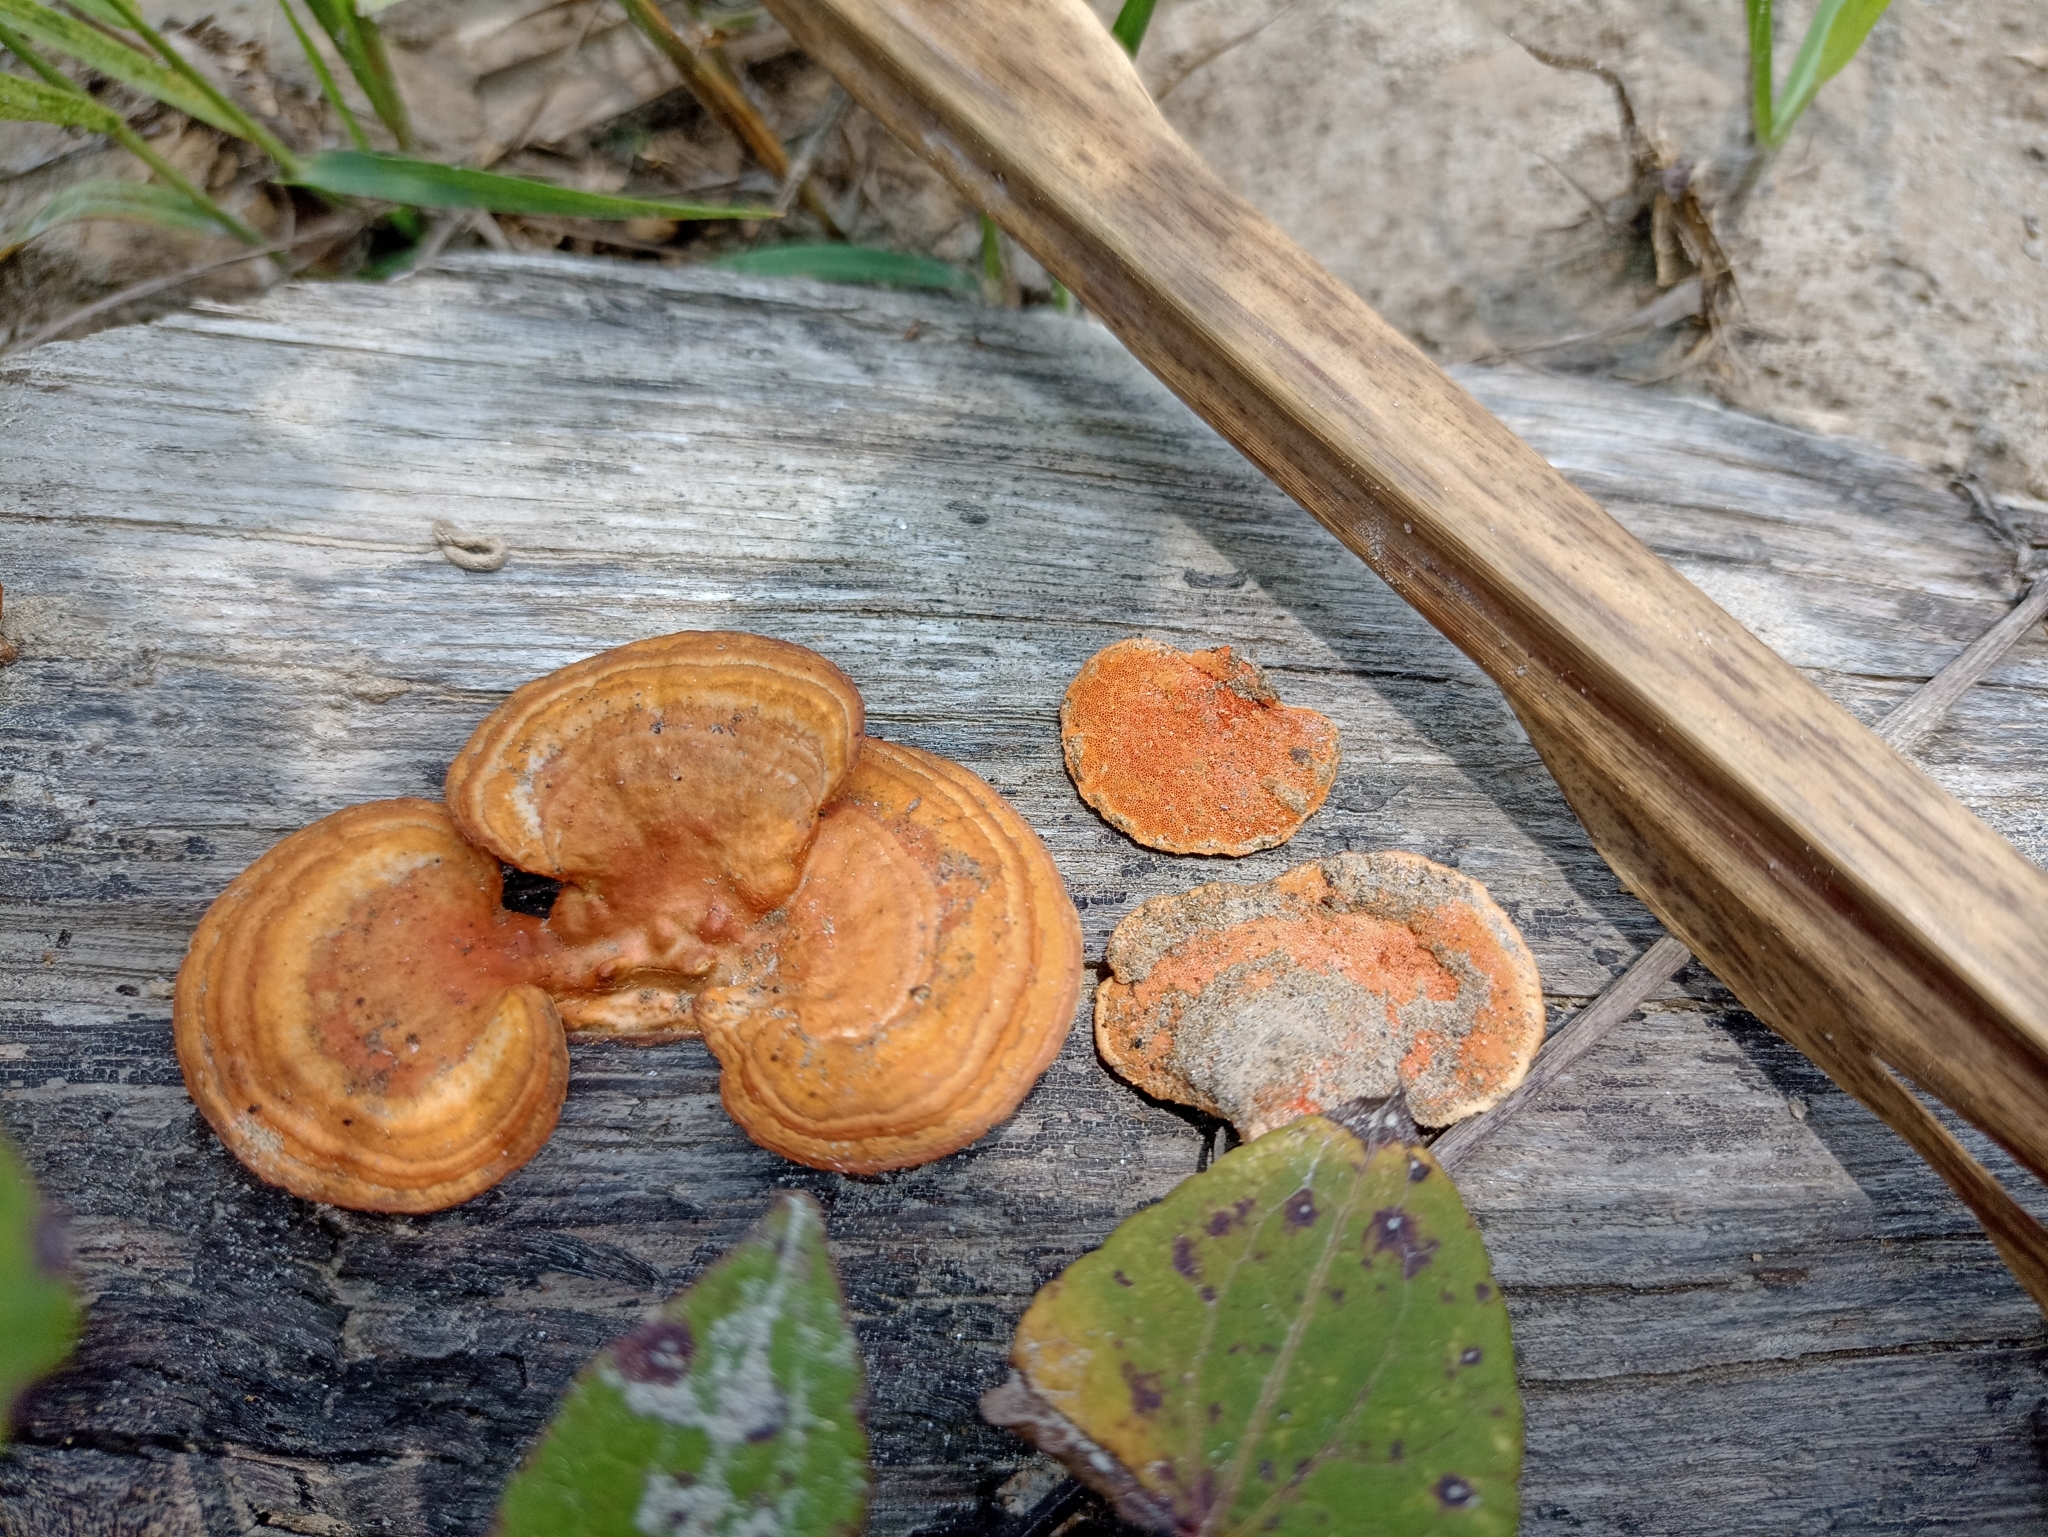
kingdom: Fungi
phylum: Basidiomycota
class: Agaricomycetes
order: Polyporales
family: Polyporaceae
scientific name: Polyporaceae
